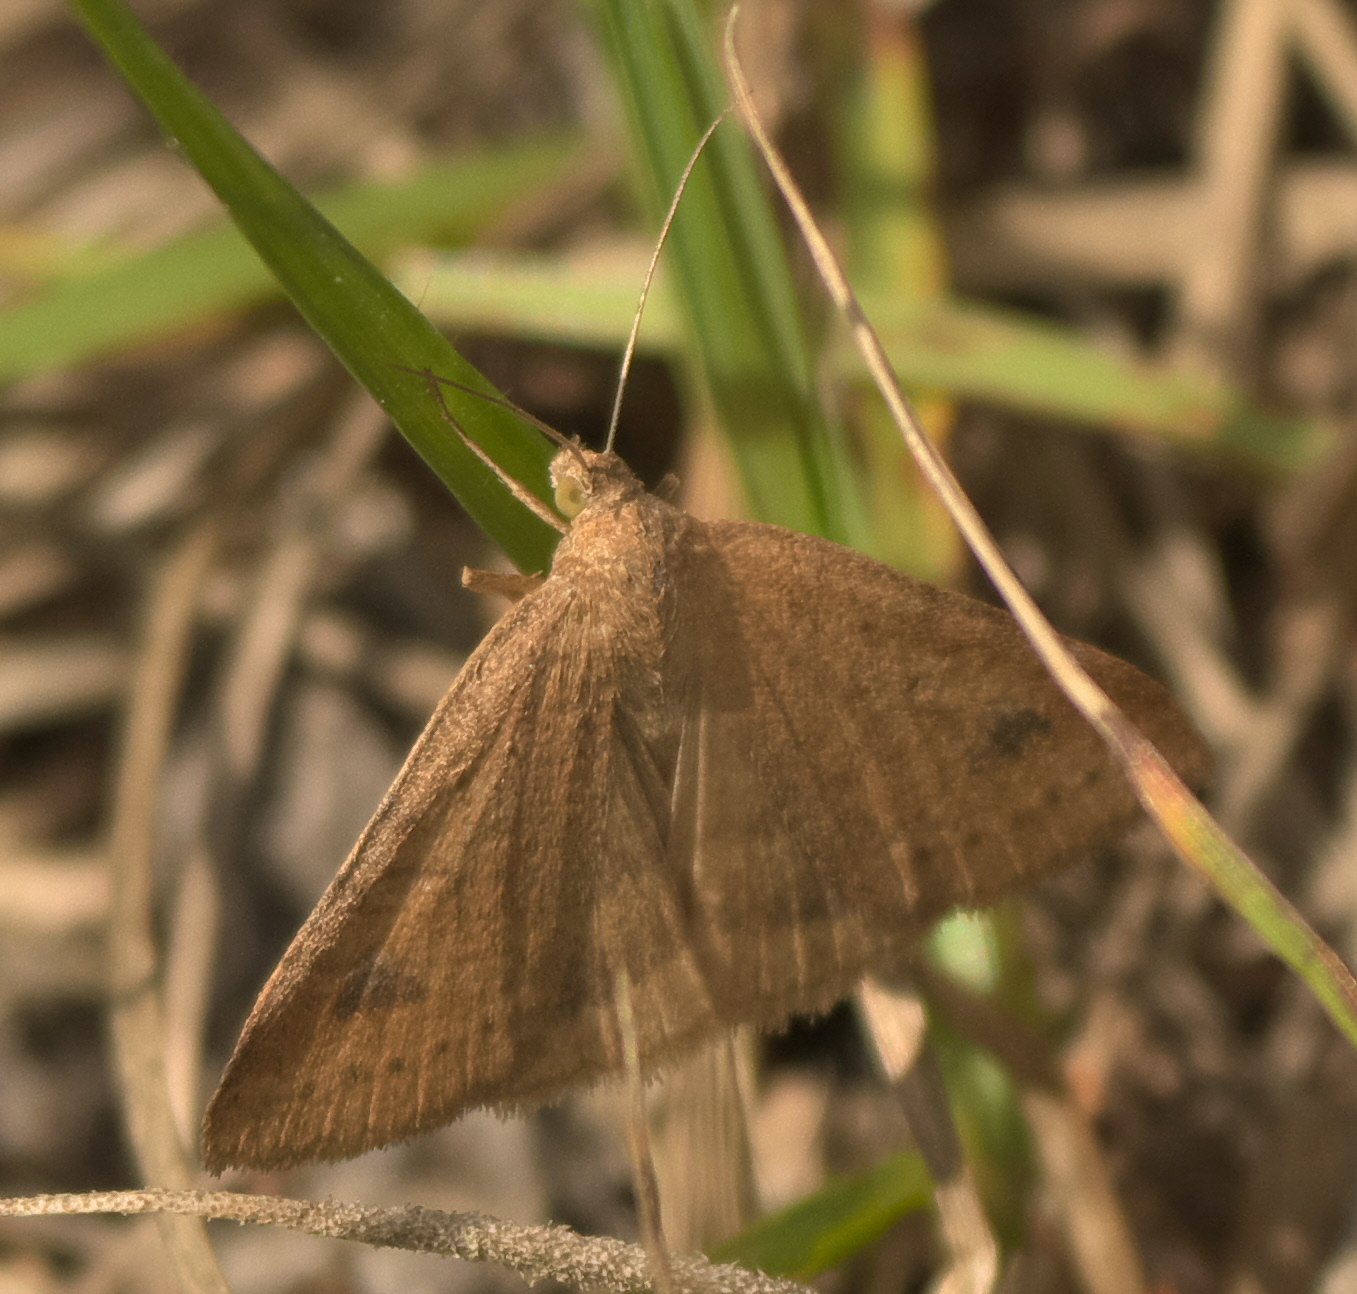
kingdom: Animalia
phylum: Arthropoda
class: Insecta
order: Lepidoptera
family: Erebidae
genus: Caenurgia
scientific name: Caenurgia chloropha
